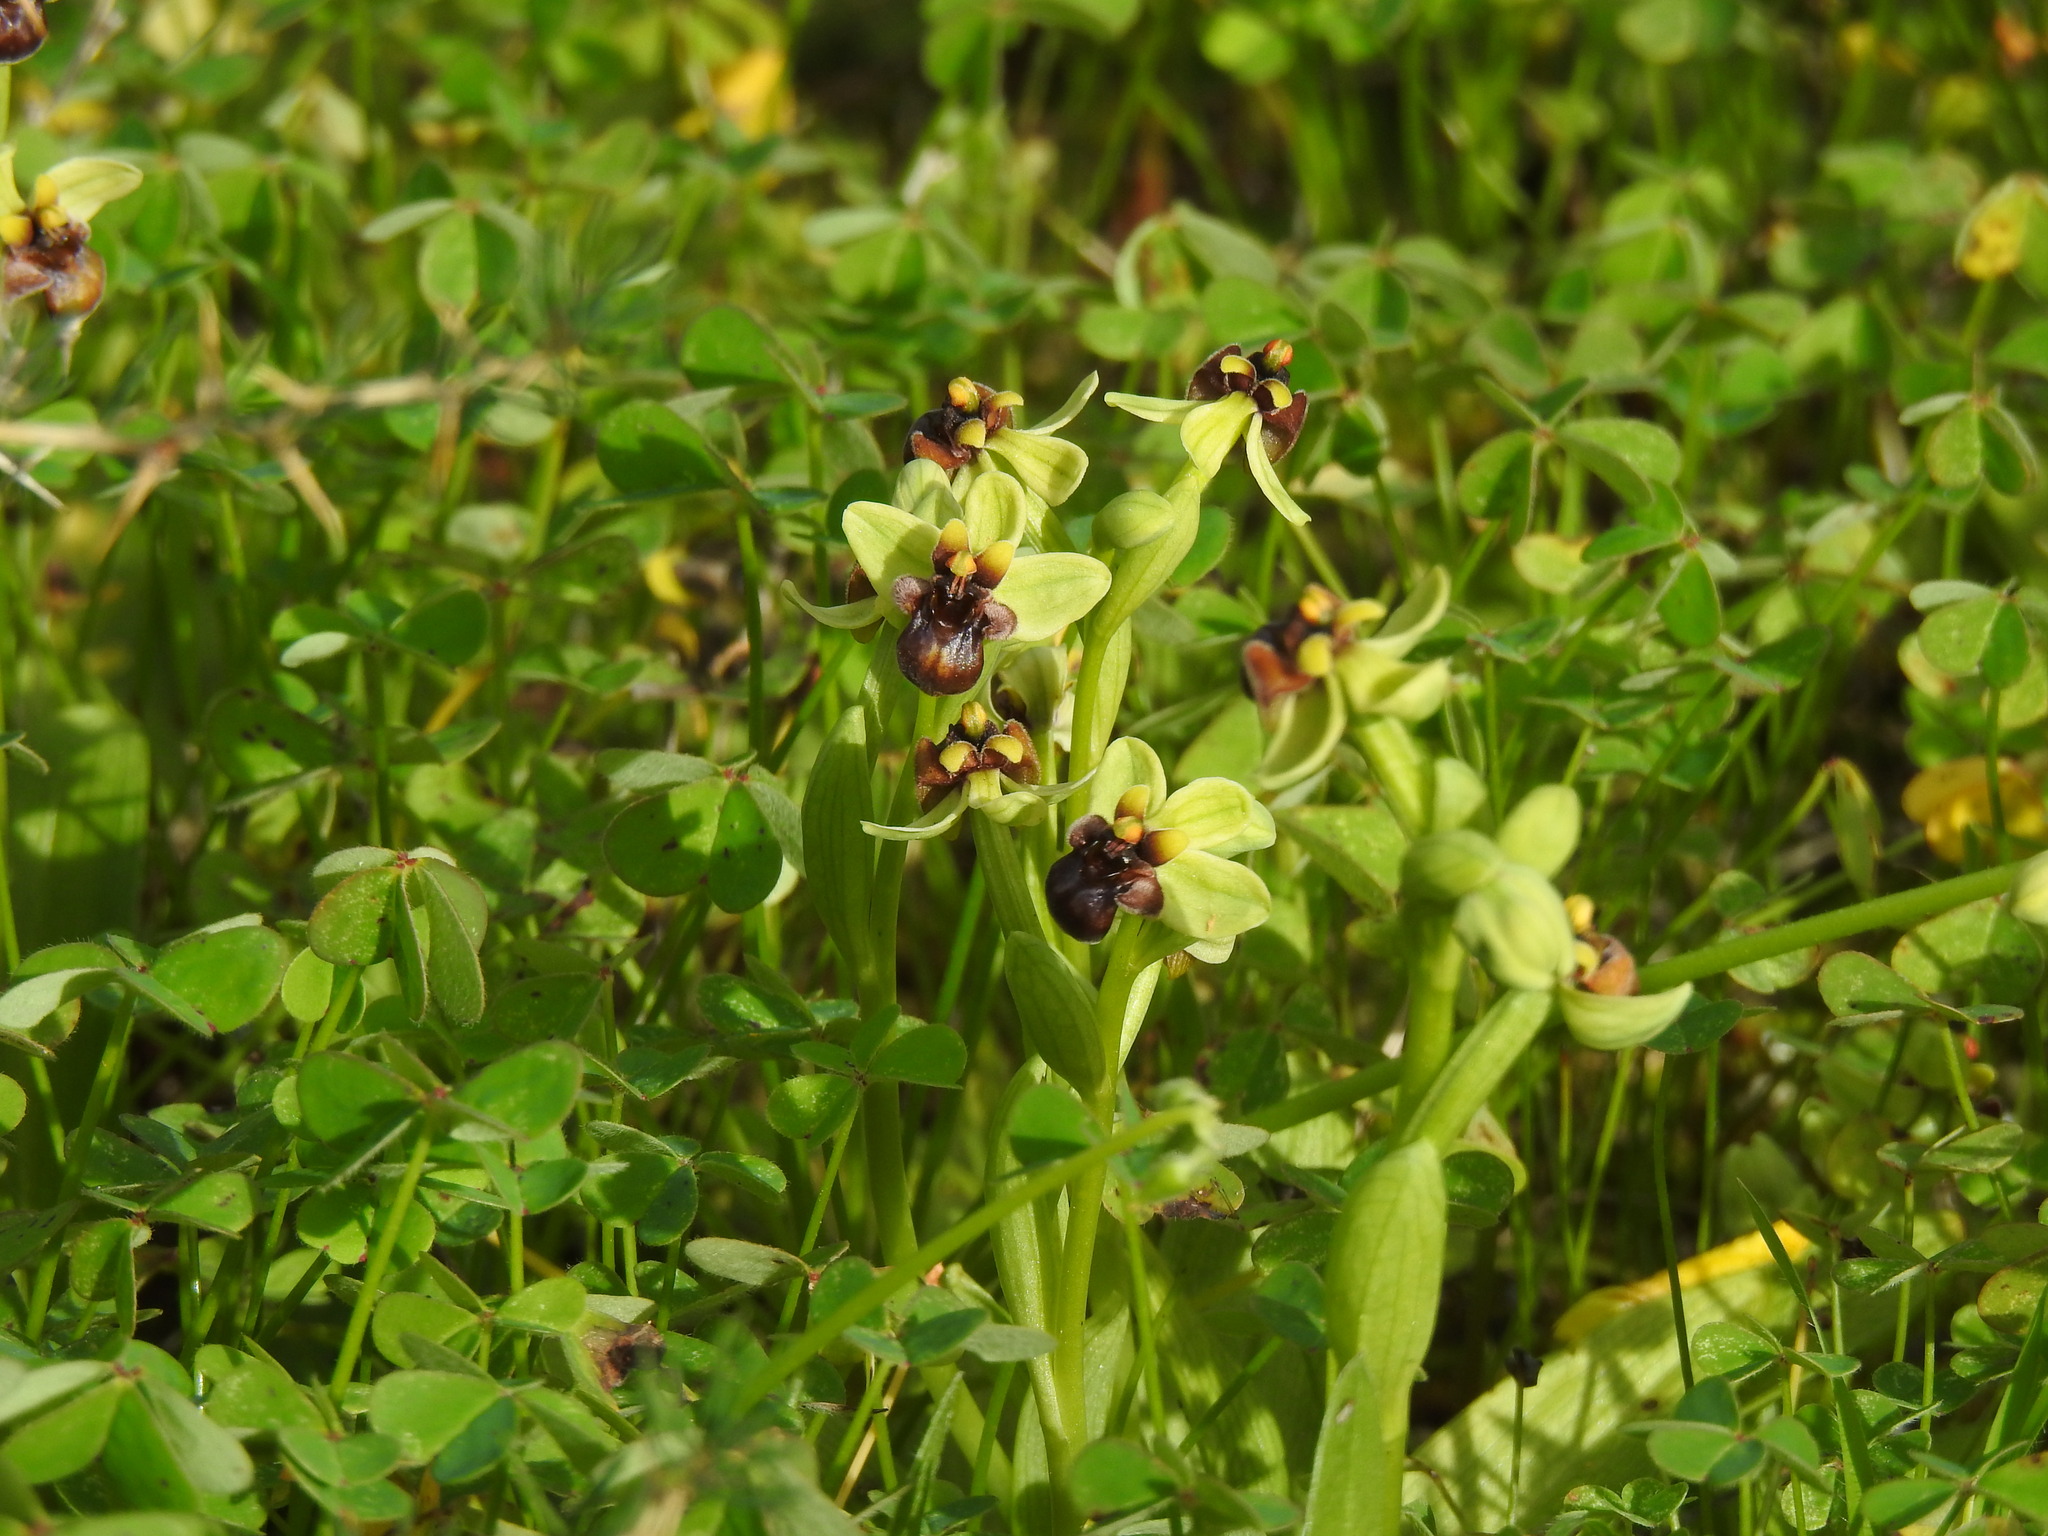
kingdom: Plantae
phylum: Tracheophyta
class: Liliopsida
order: Asparagales
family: Orchidaceae
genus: Ophrys
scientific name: Ophrys bombyliflora
